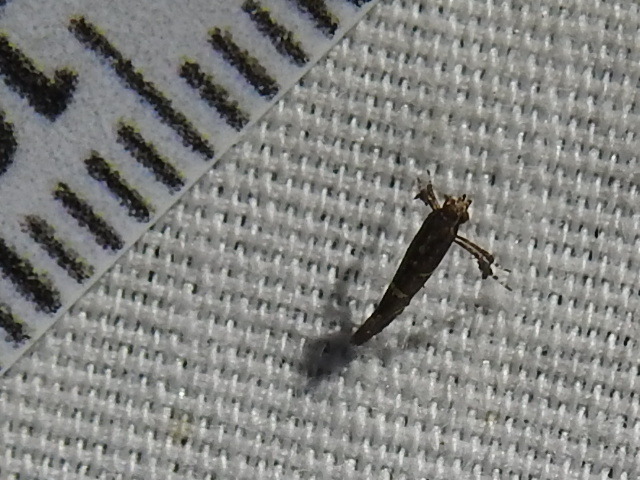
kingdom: Animalia
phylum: Arthropoda
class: Insecta
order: Lepidoptera
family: Gracillariidae
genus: Caloptilia
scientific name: Caloptilia triadicae
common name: Tallow leaf roller
